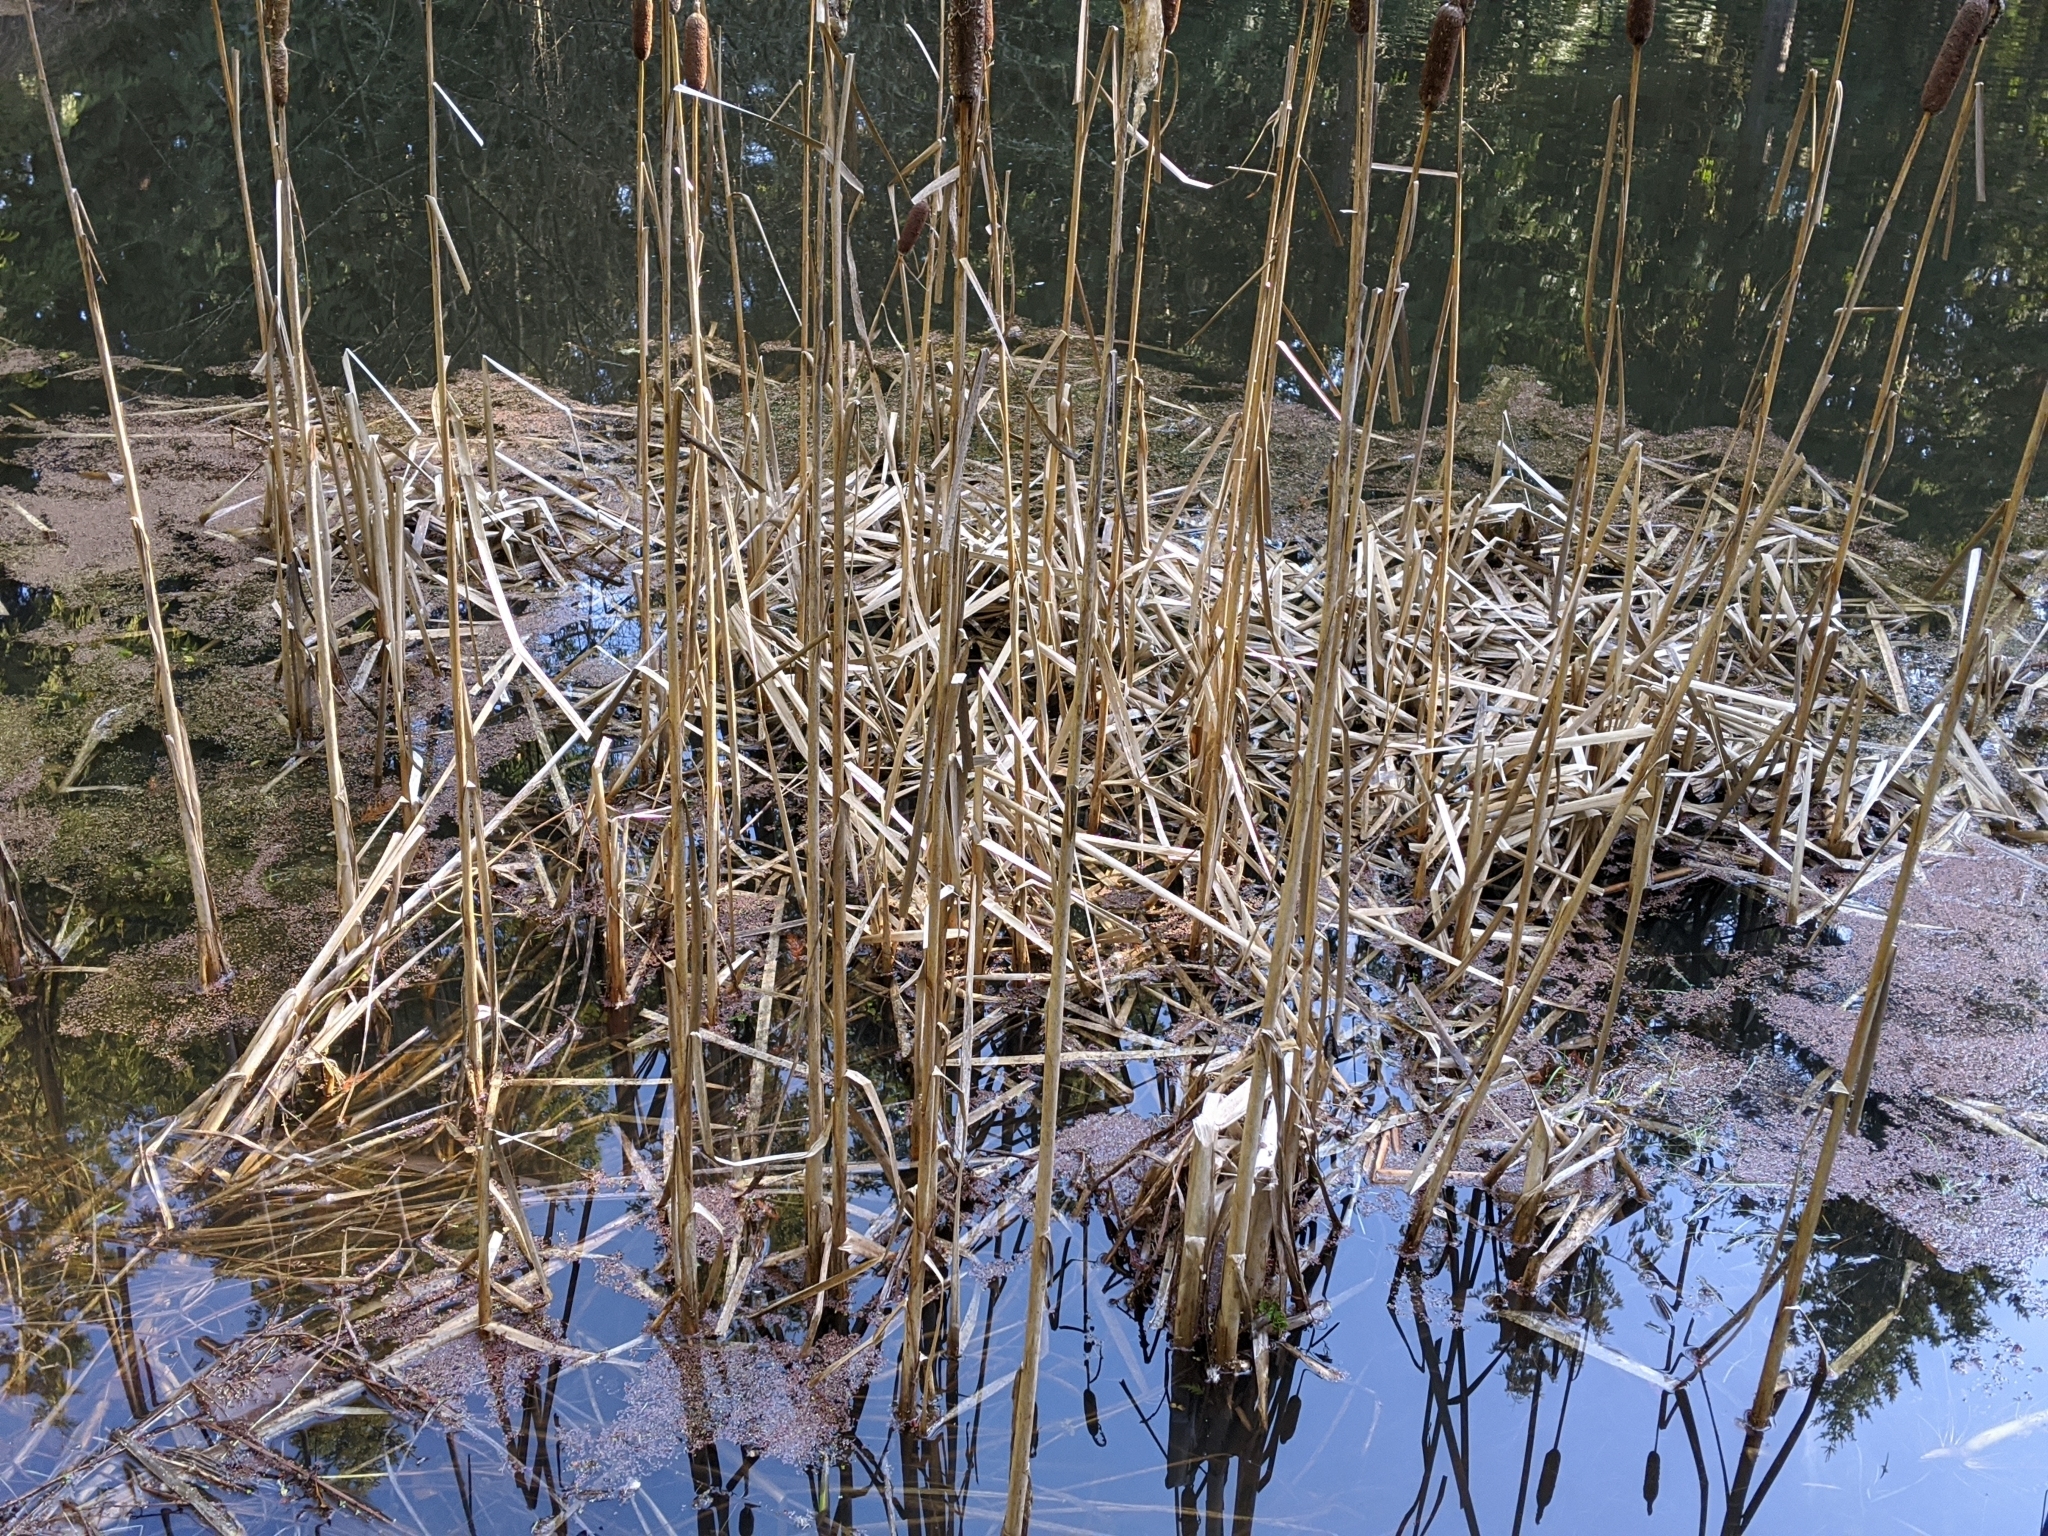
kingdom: Plantae
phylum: Tracheophyta
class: Liliopsida
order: Poales
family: Typhaceae
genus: Typha
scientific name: Typha latifolia
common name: Broadleaf cattail
